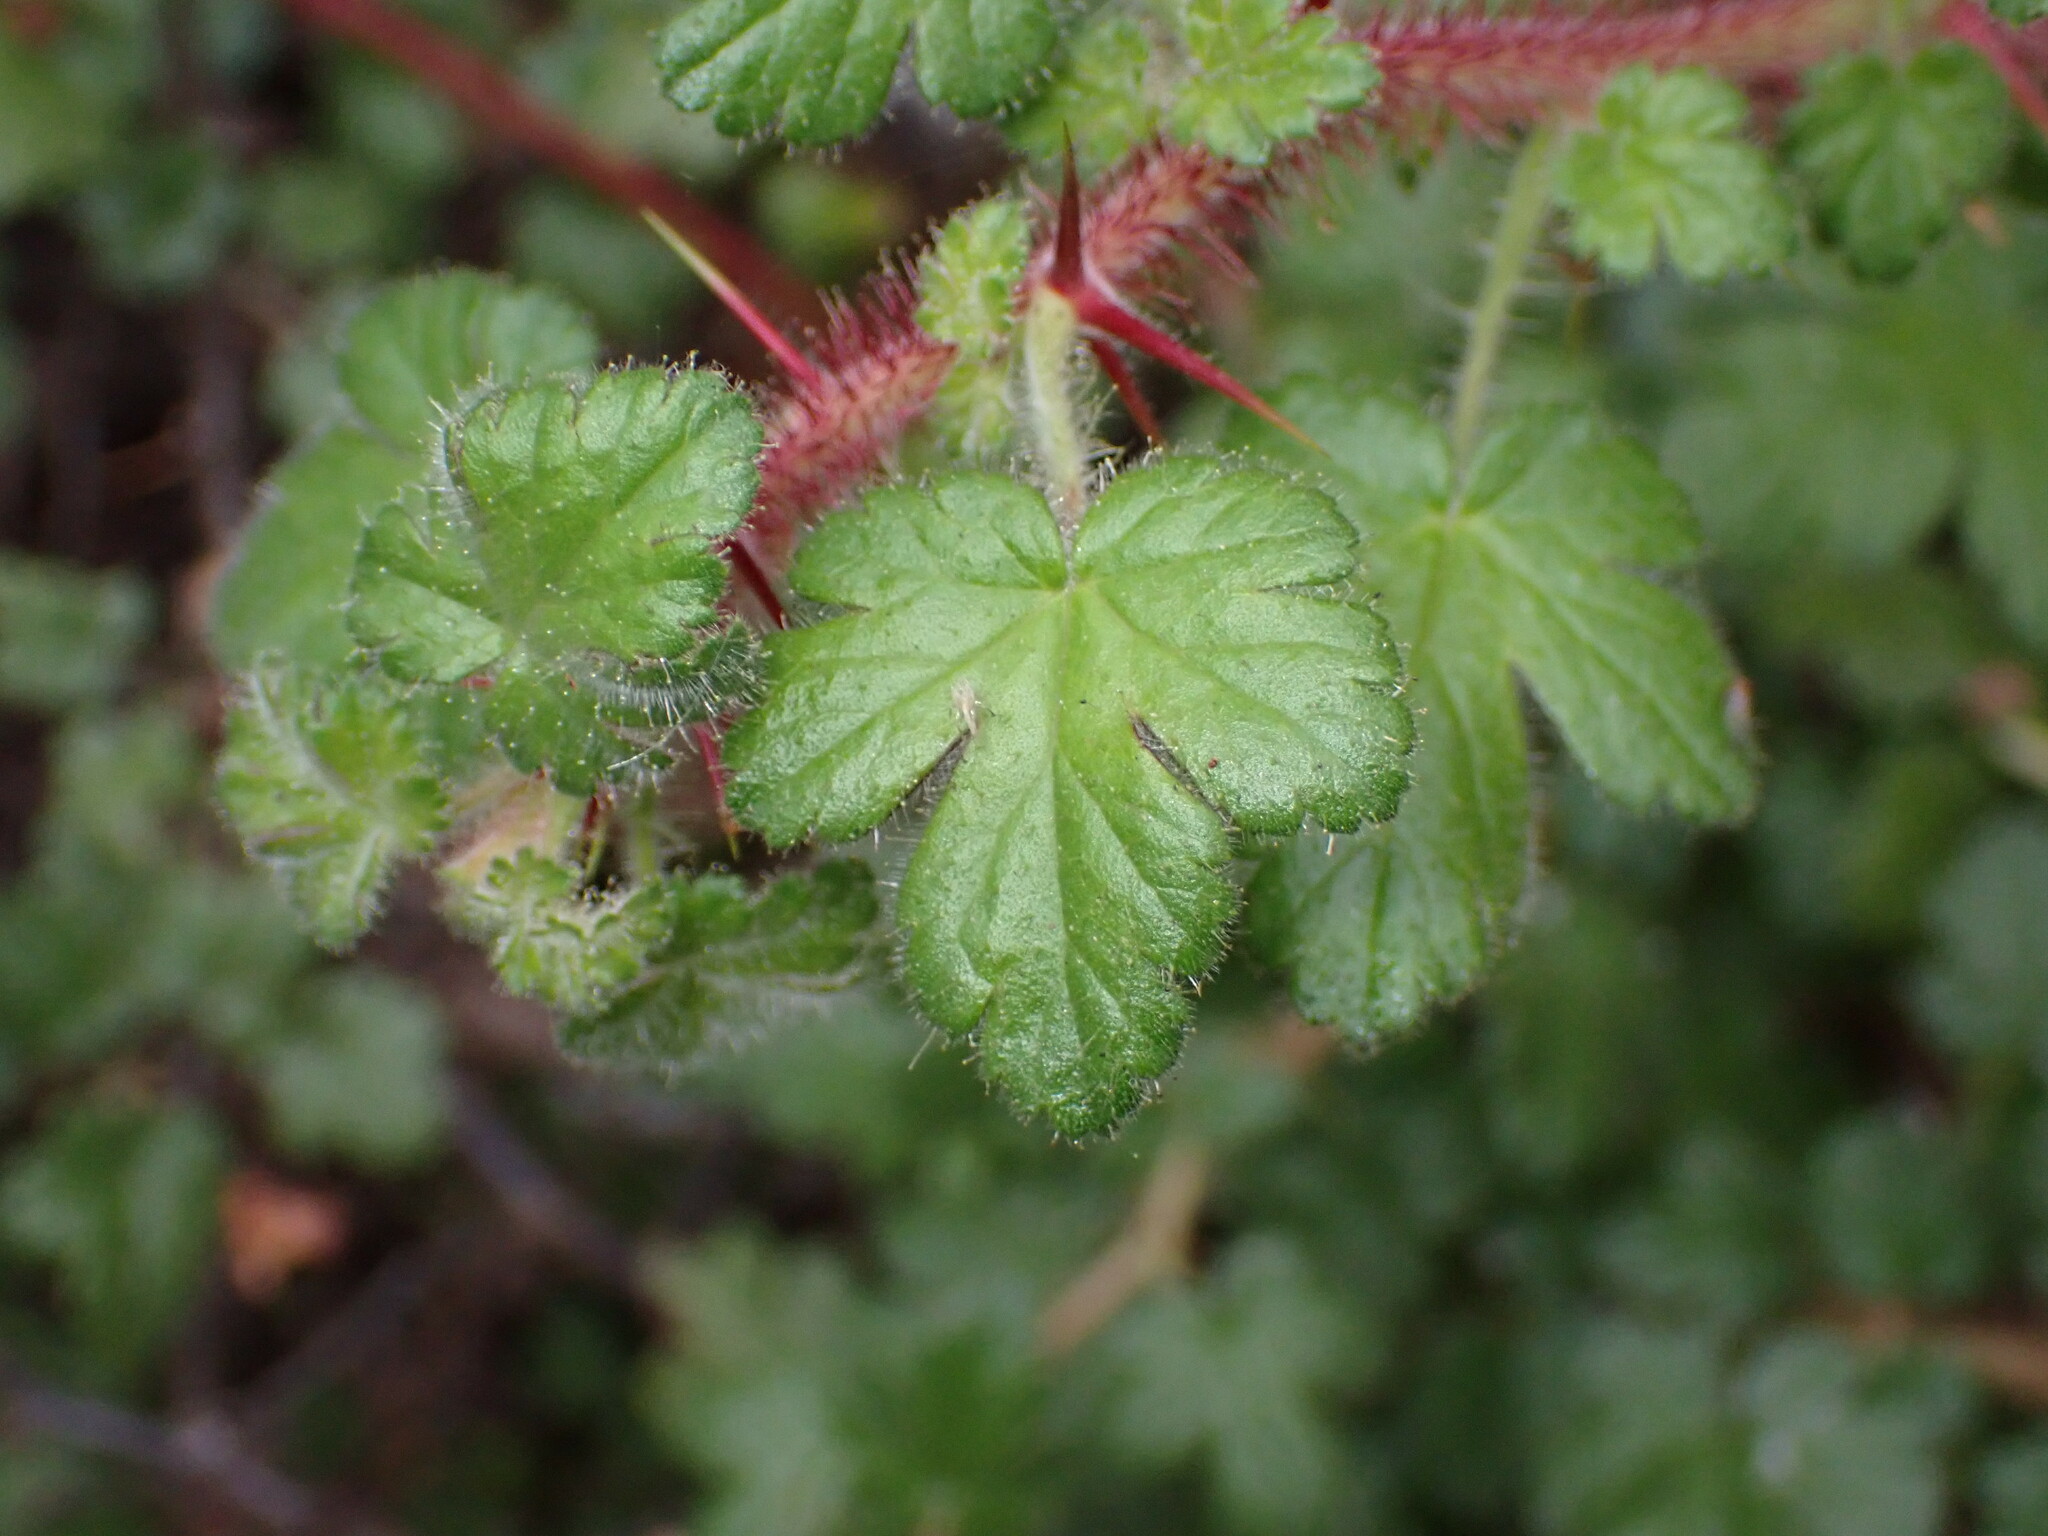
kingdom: Plantae
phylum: Tracheophyta
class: Magnoliopsida
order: Saxifragales
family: Grossulariaceae
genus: Ribes
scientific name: Ribes sericeum
